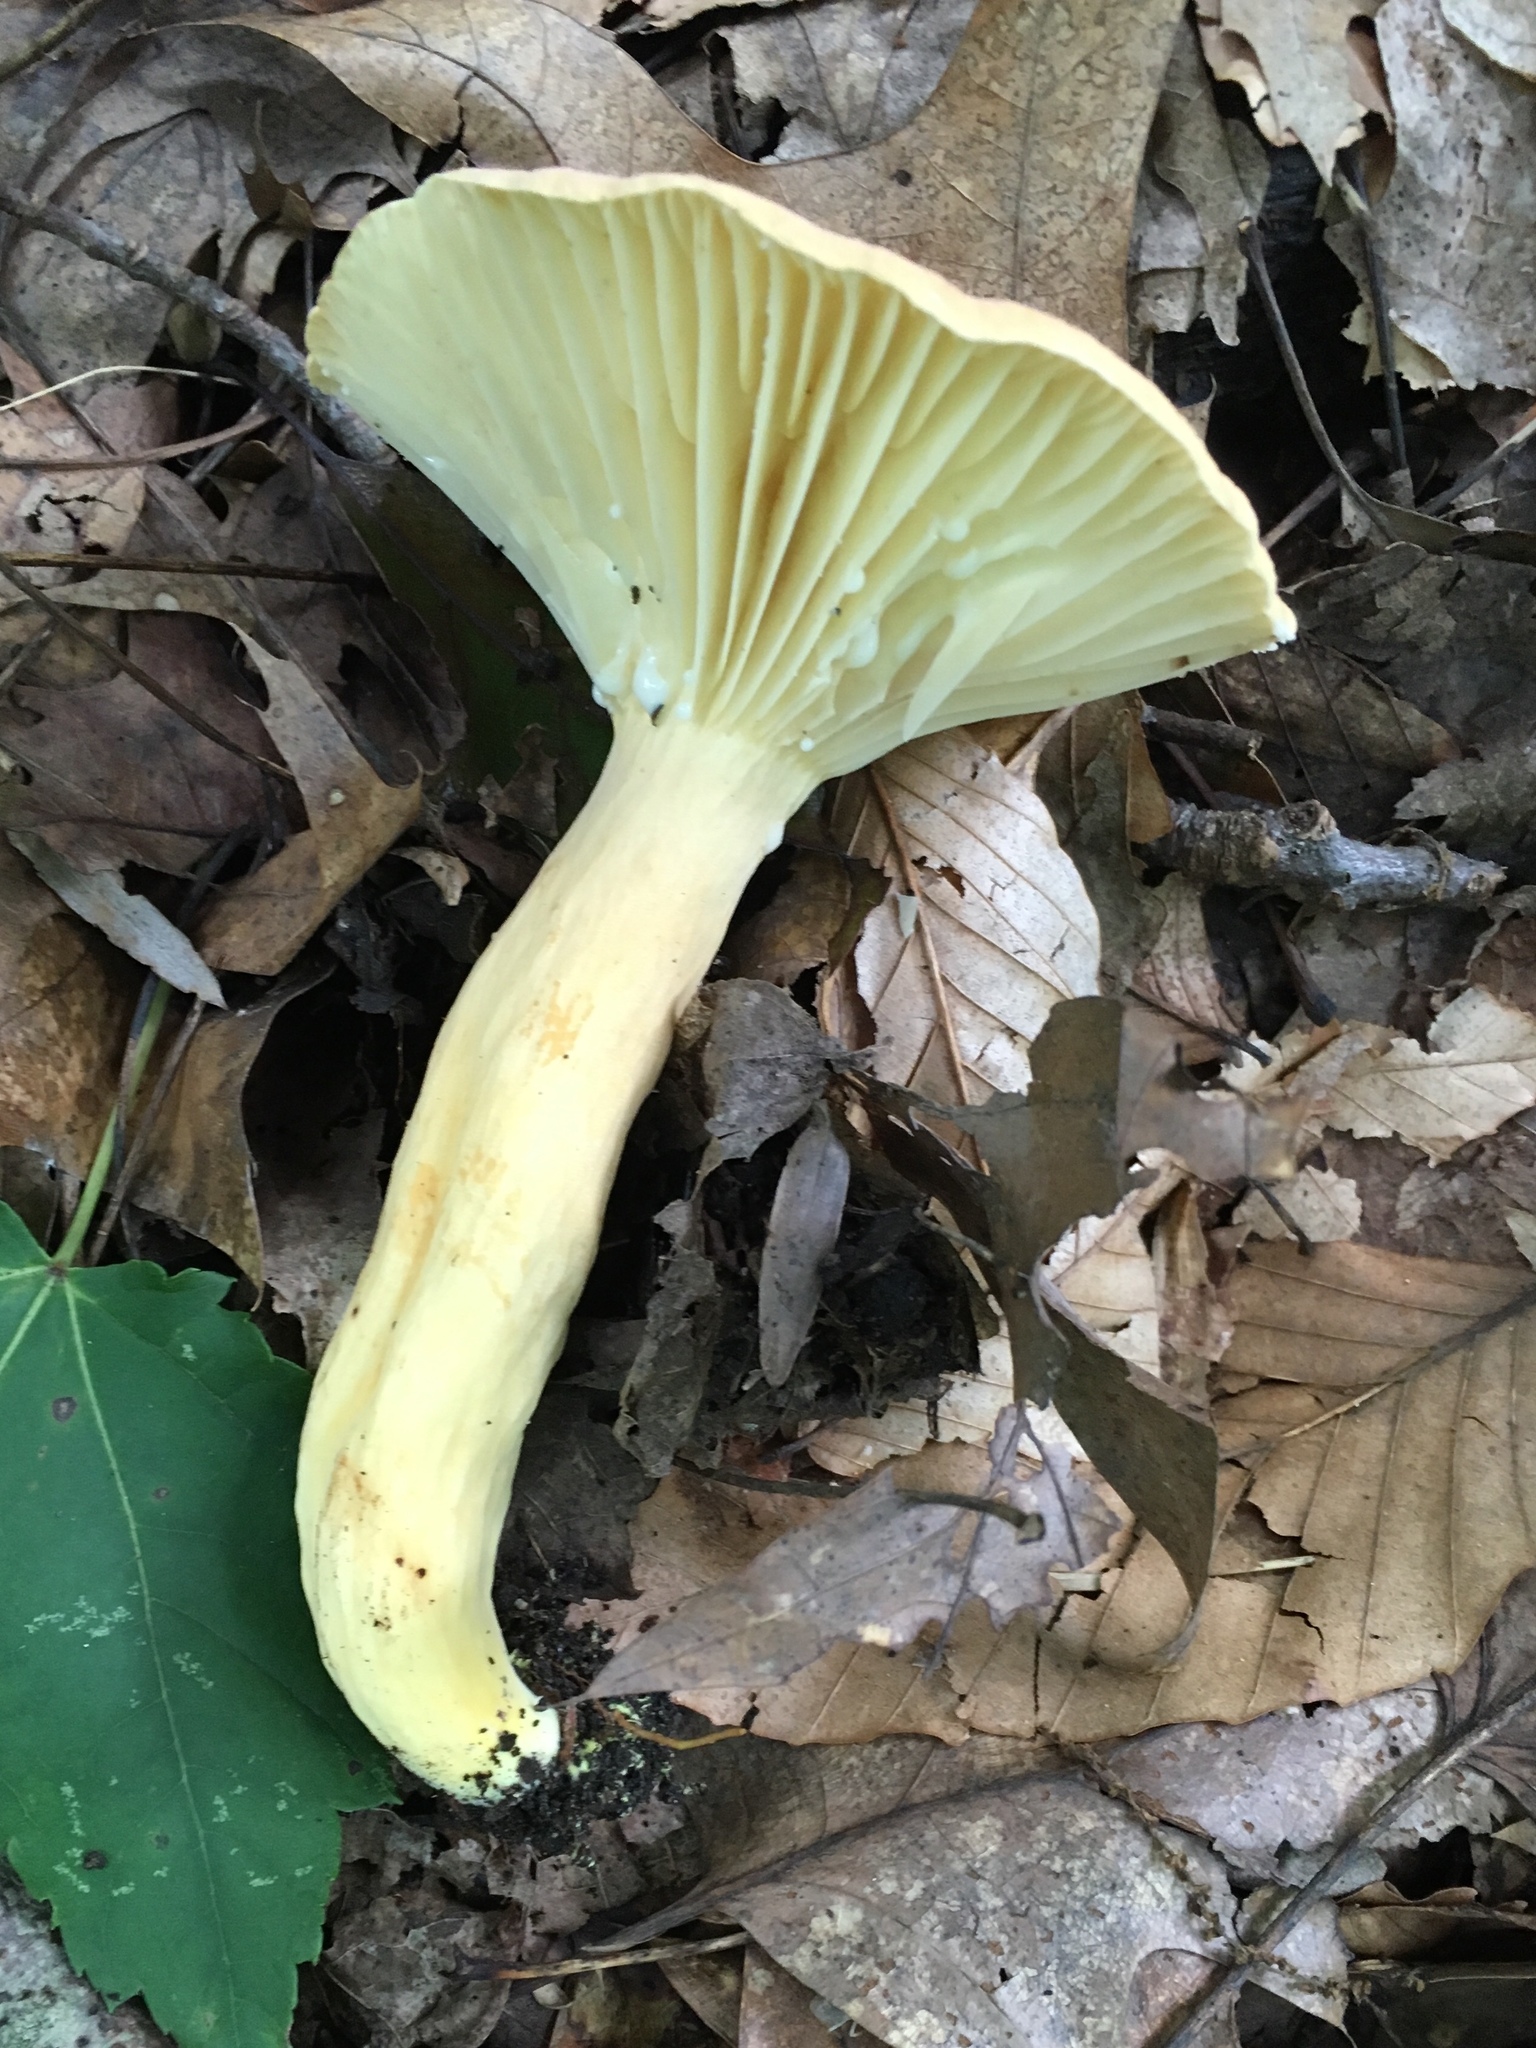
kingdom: Fungi
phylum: Basidiomycota
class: Agaricomycetes
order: Russulales
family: Russulaceae
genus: Lactarius
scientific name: Lactarius hygrophoroides
